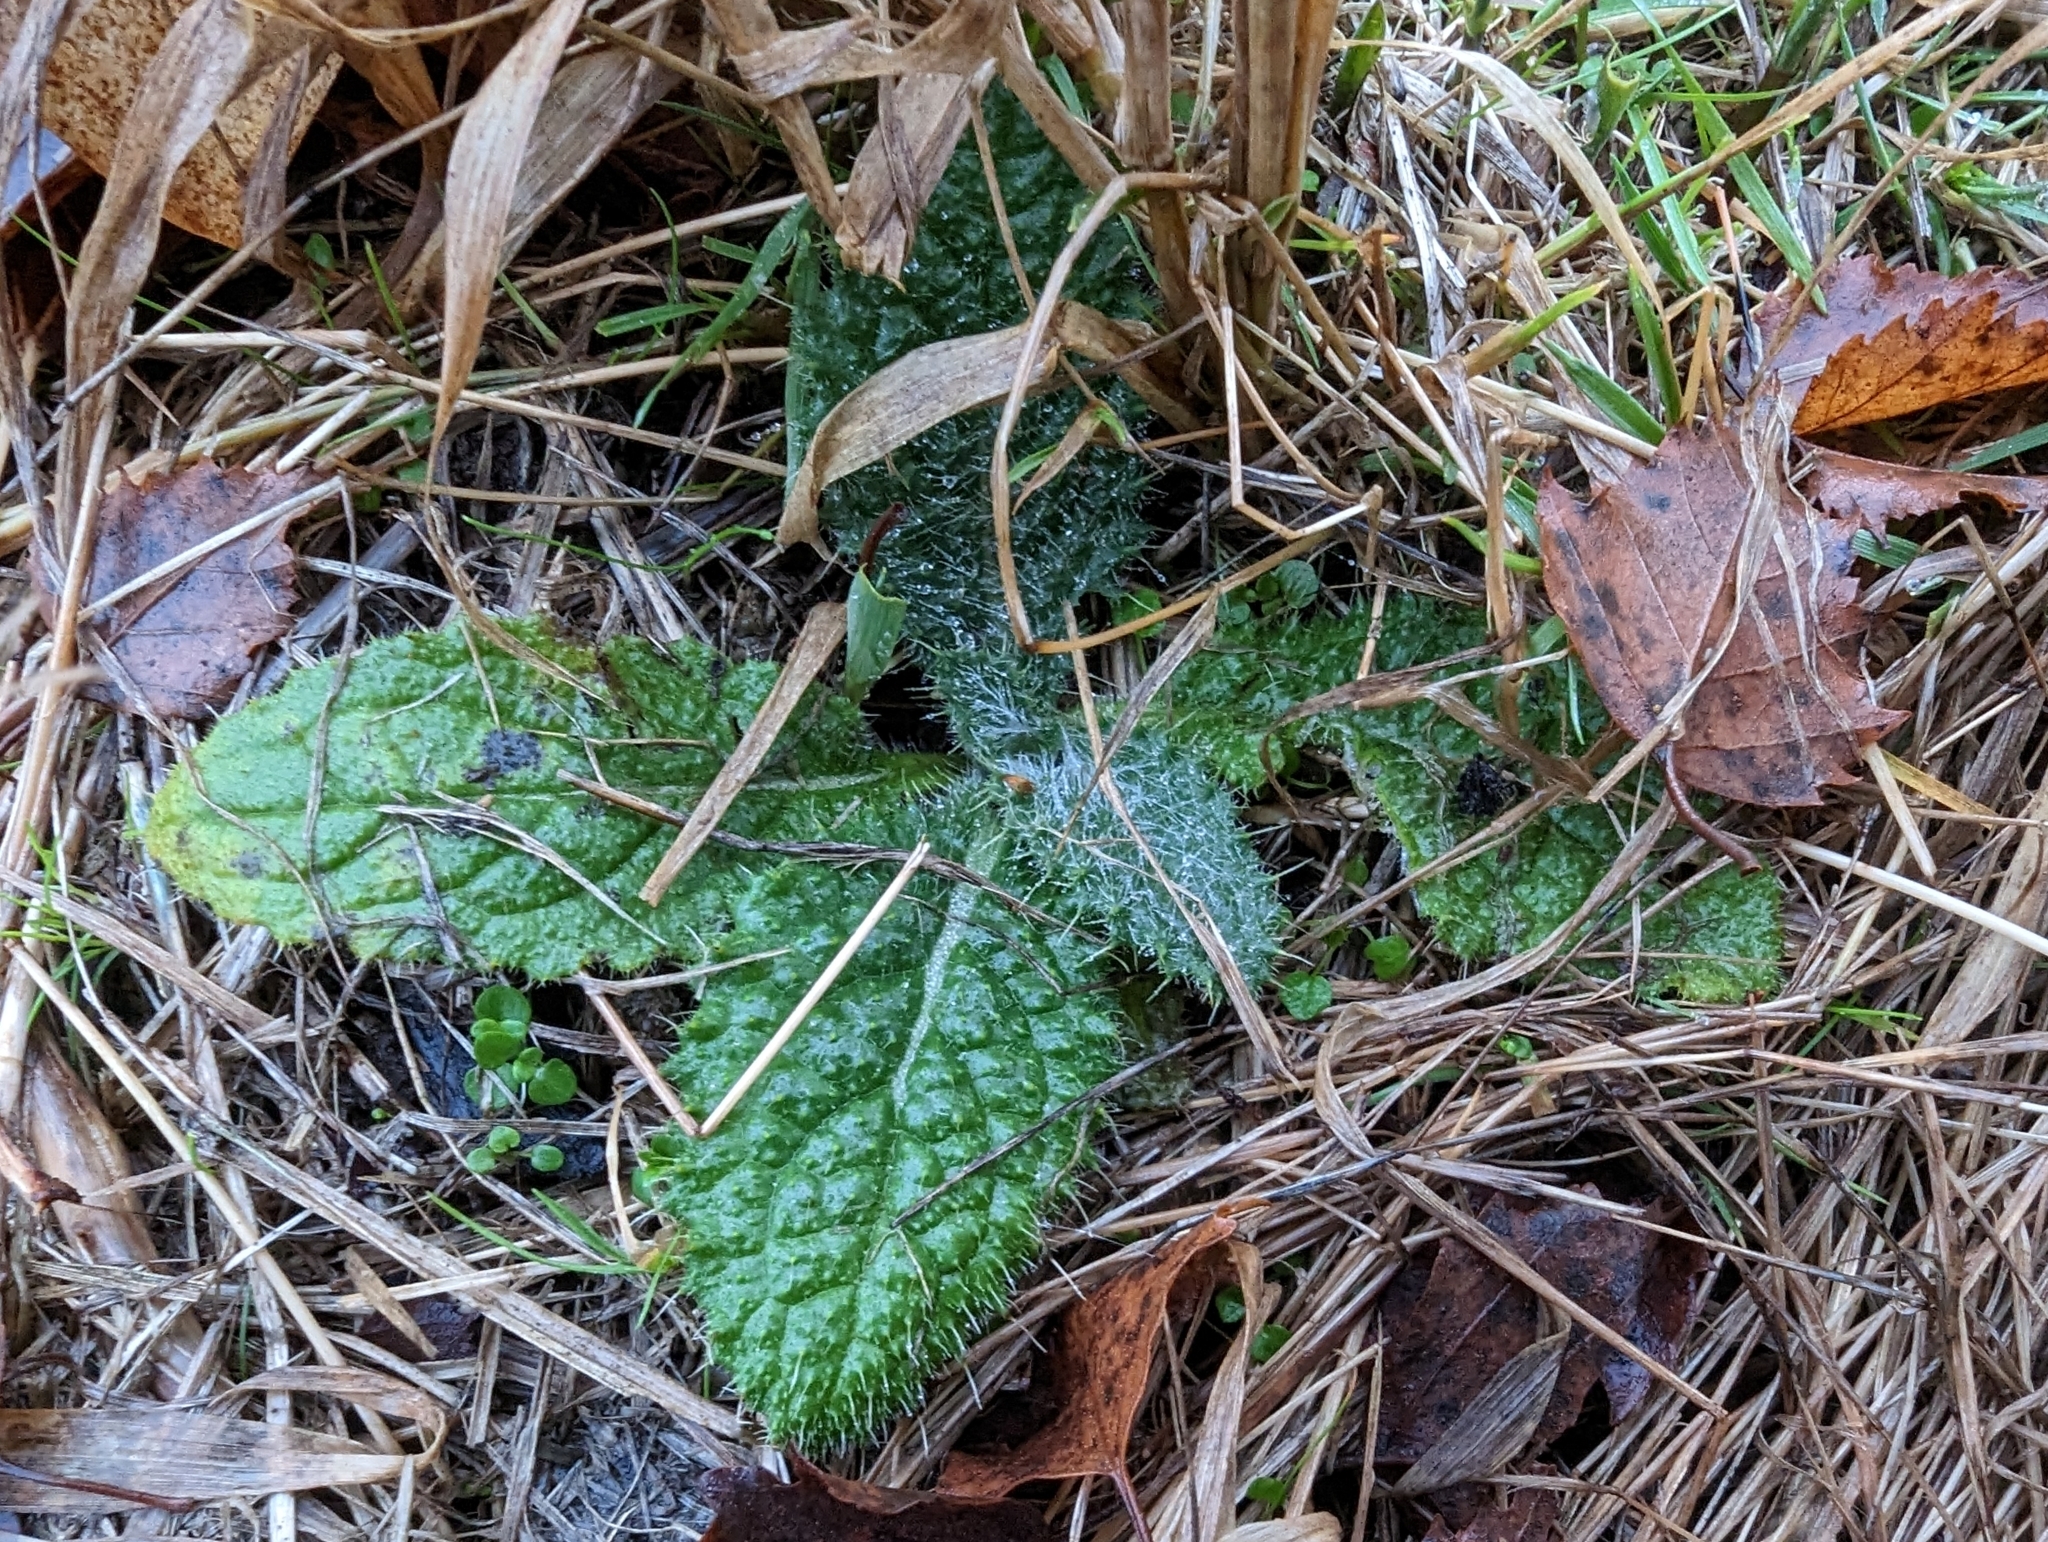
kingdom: Plantae
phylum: Tracheophyta
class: Magnoliopsida
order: Asterales
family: Asteraceae
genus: Cirsium
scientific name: Cirsium vulgare
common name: Bull thistle
